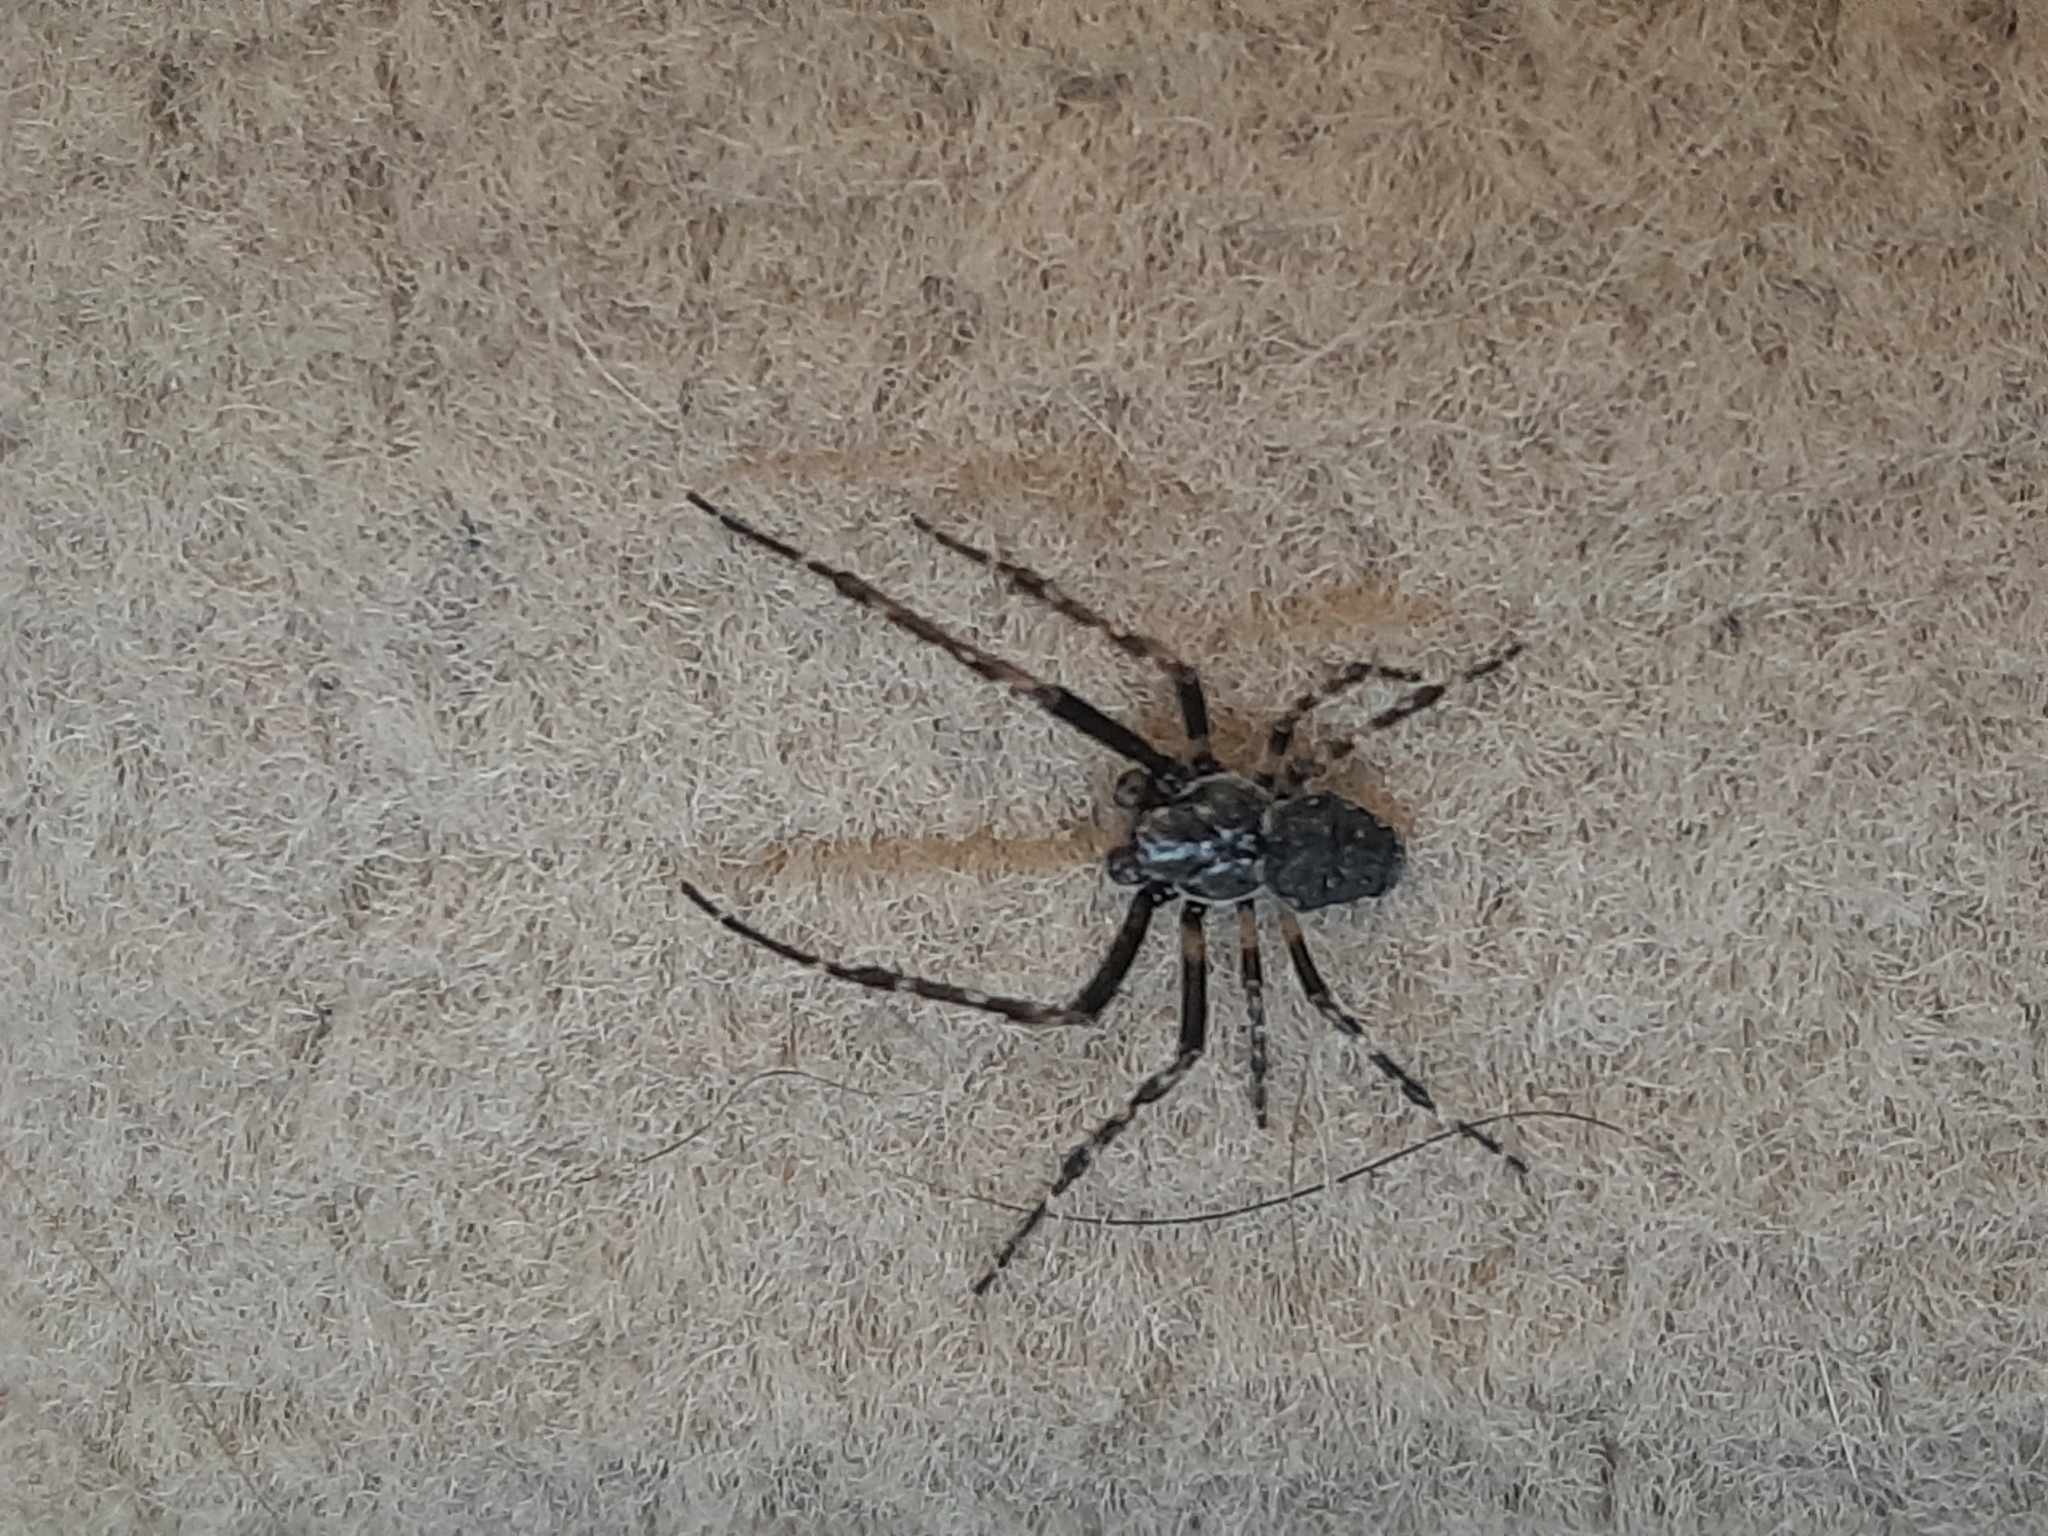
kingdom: Animalia
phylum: Arthropoda
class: Arachnida
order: Araneae
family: Araneidae
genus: Nuctenea
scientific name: Nuctenea umbratica
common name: Toad spider
